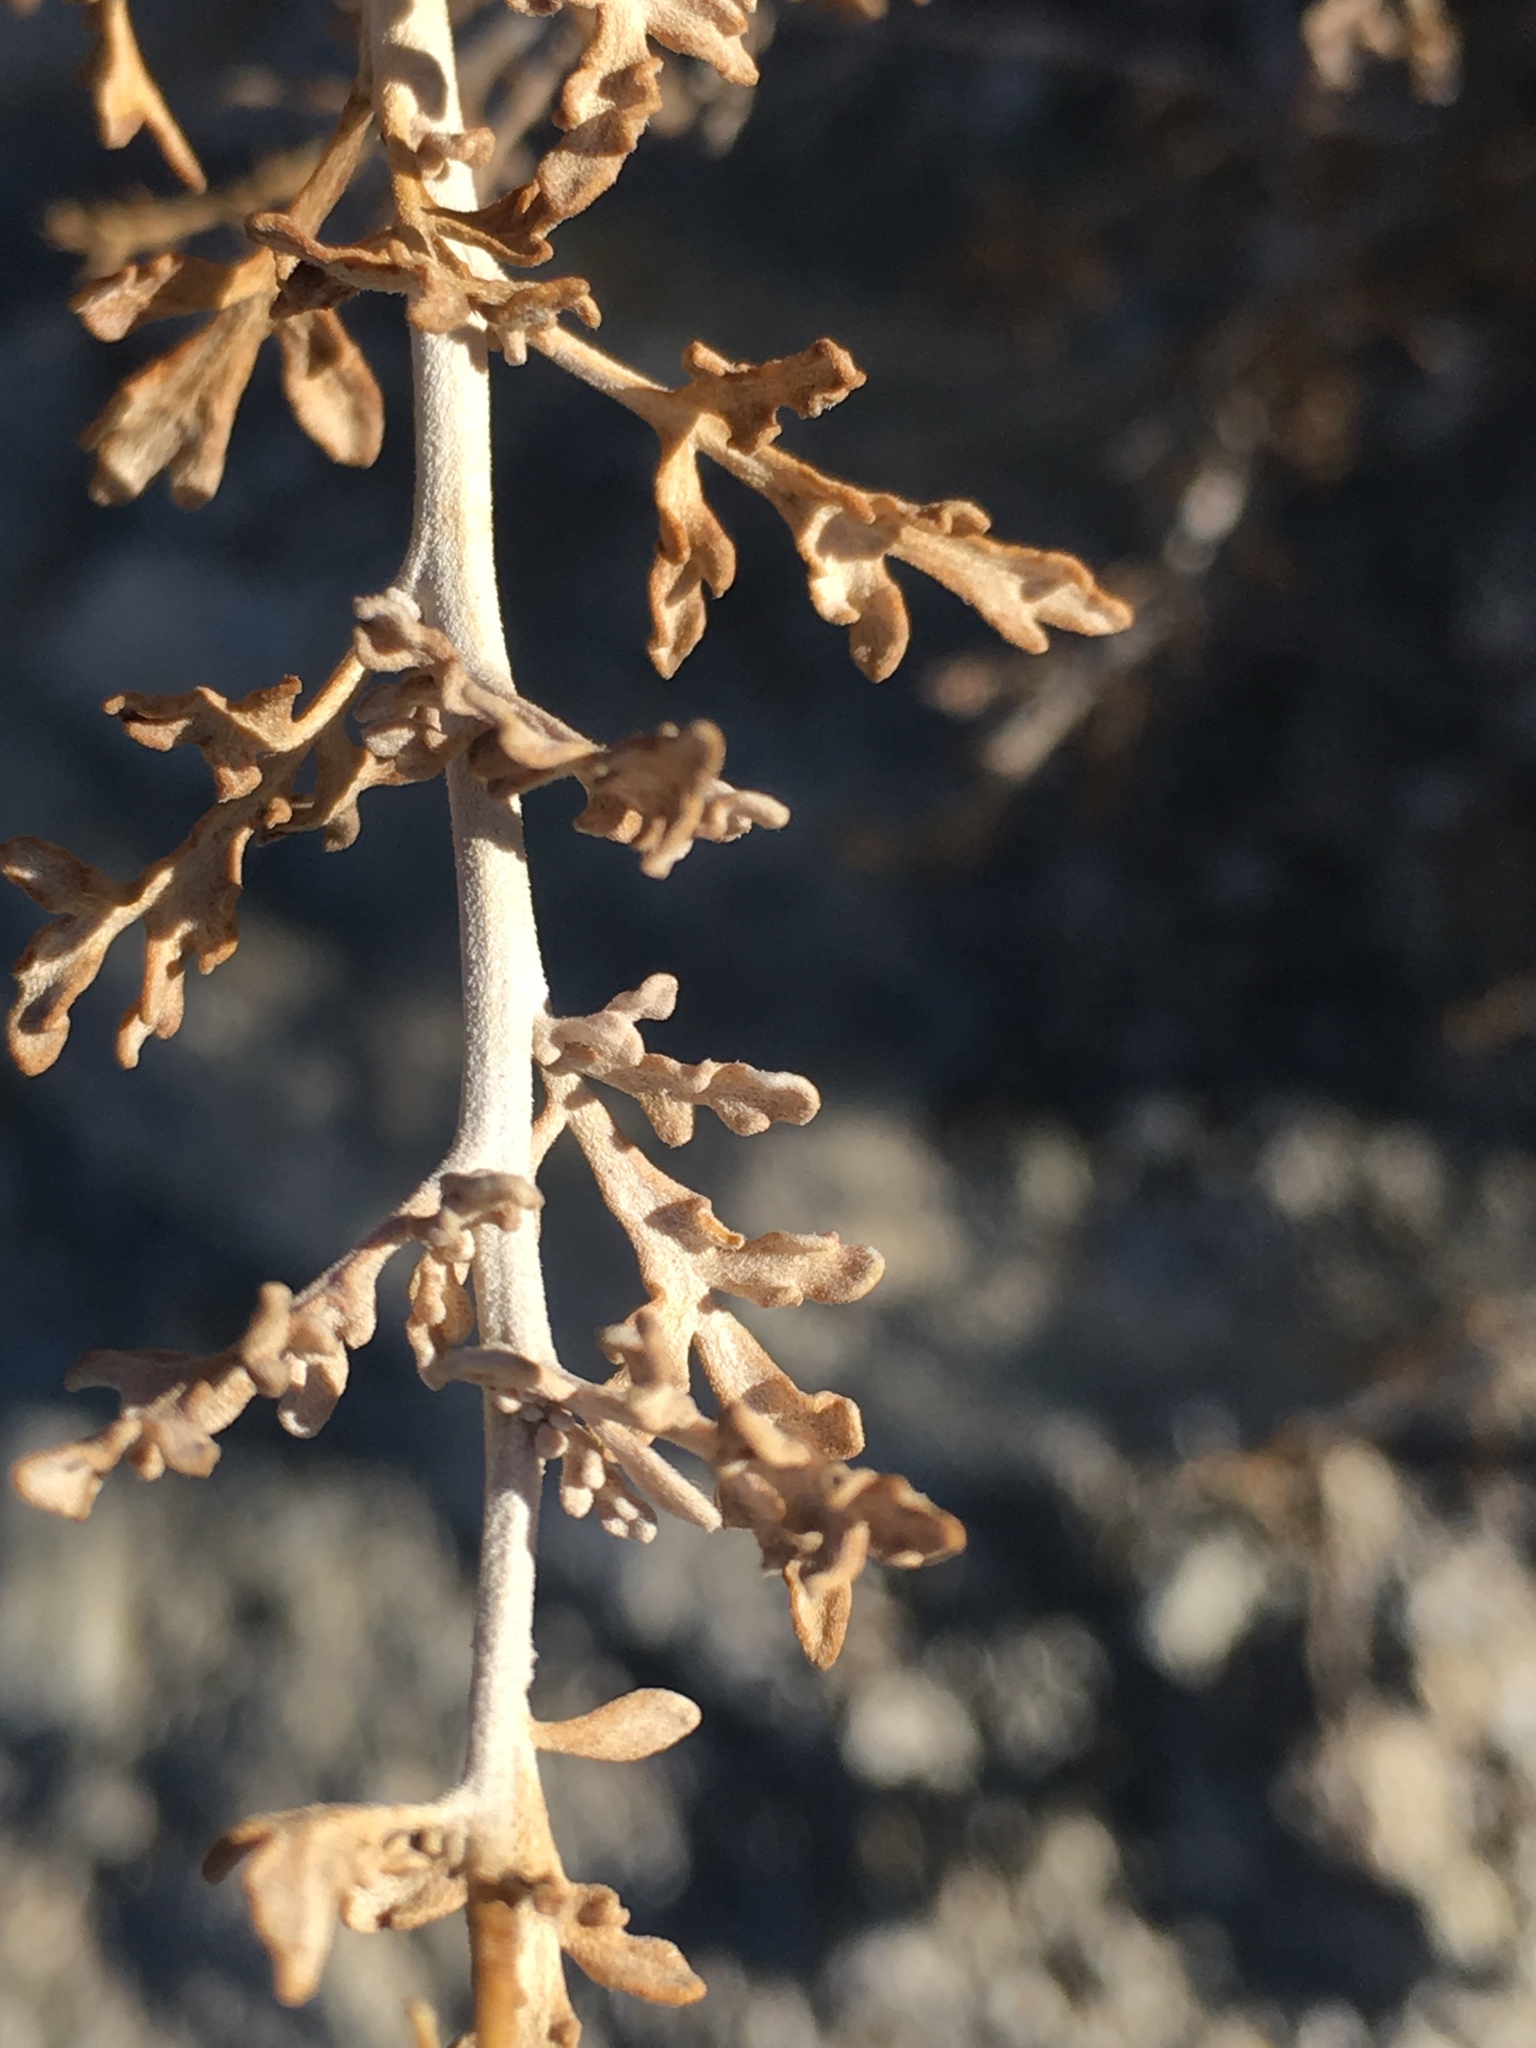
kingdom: Plantae
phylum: Tracheophyta
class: Magnoliopsida
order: Asterales
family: Asteraceae
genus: Ambrosia
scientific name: Ambrosia dumosa
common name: Bur-sage
